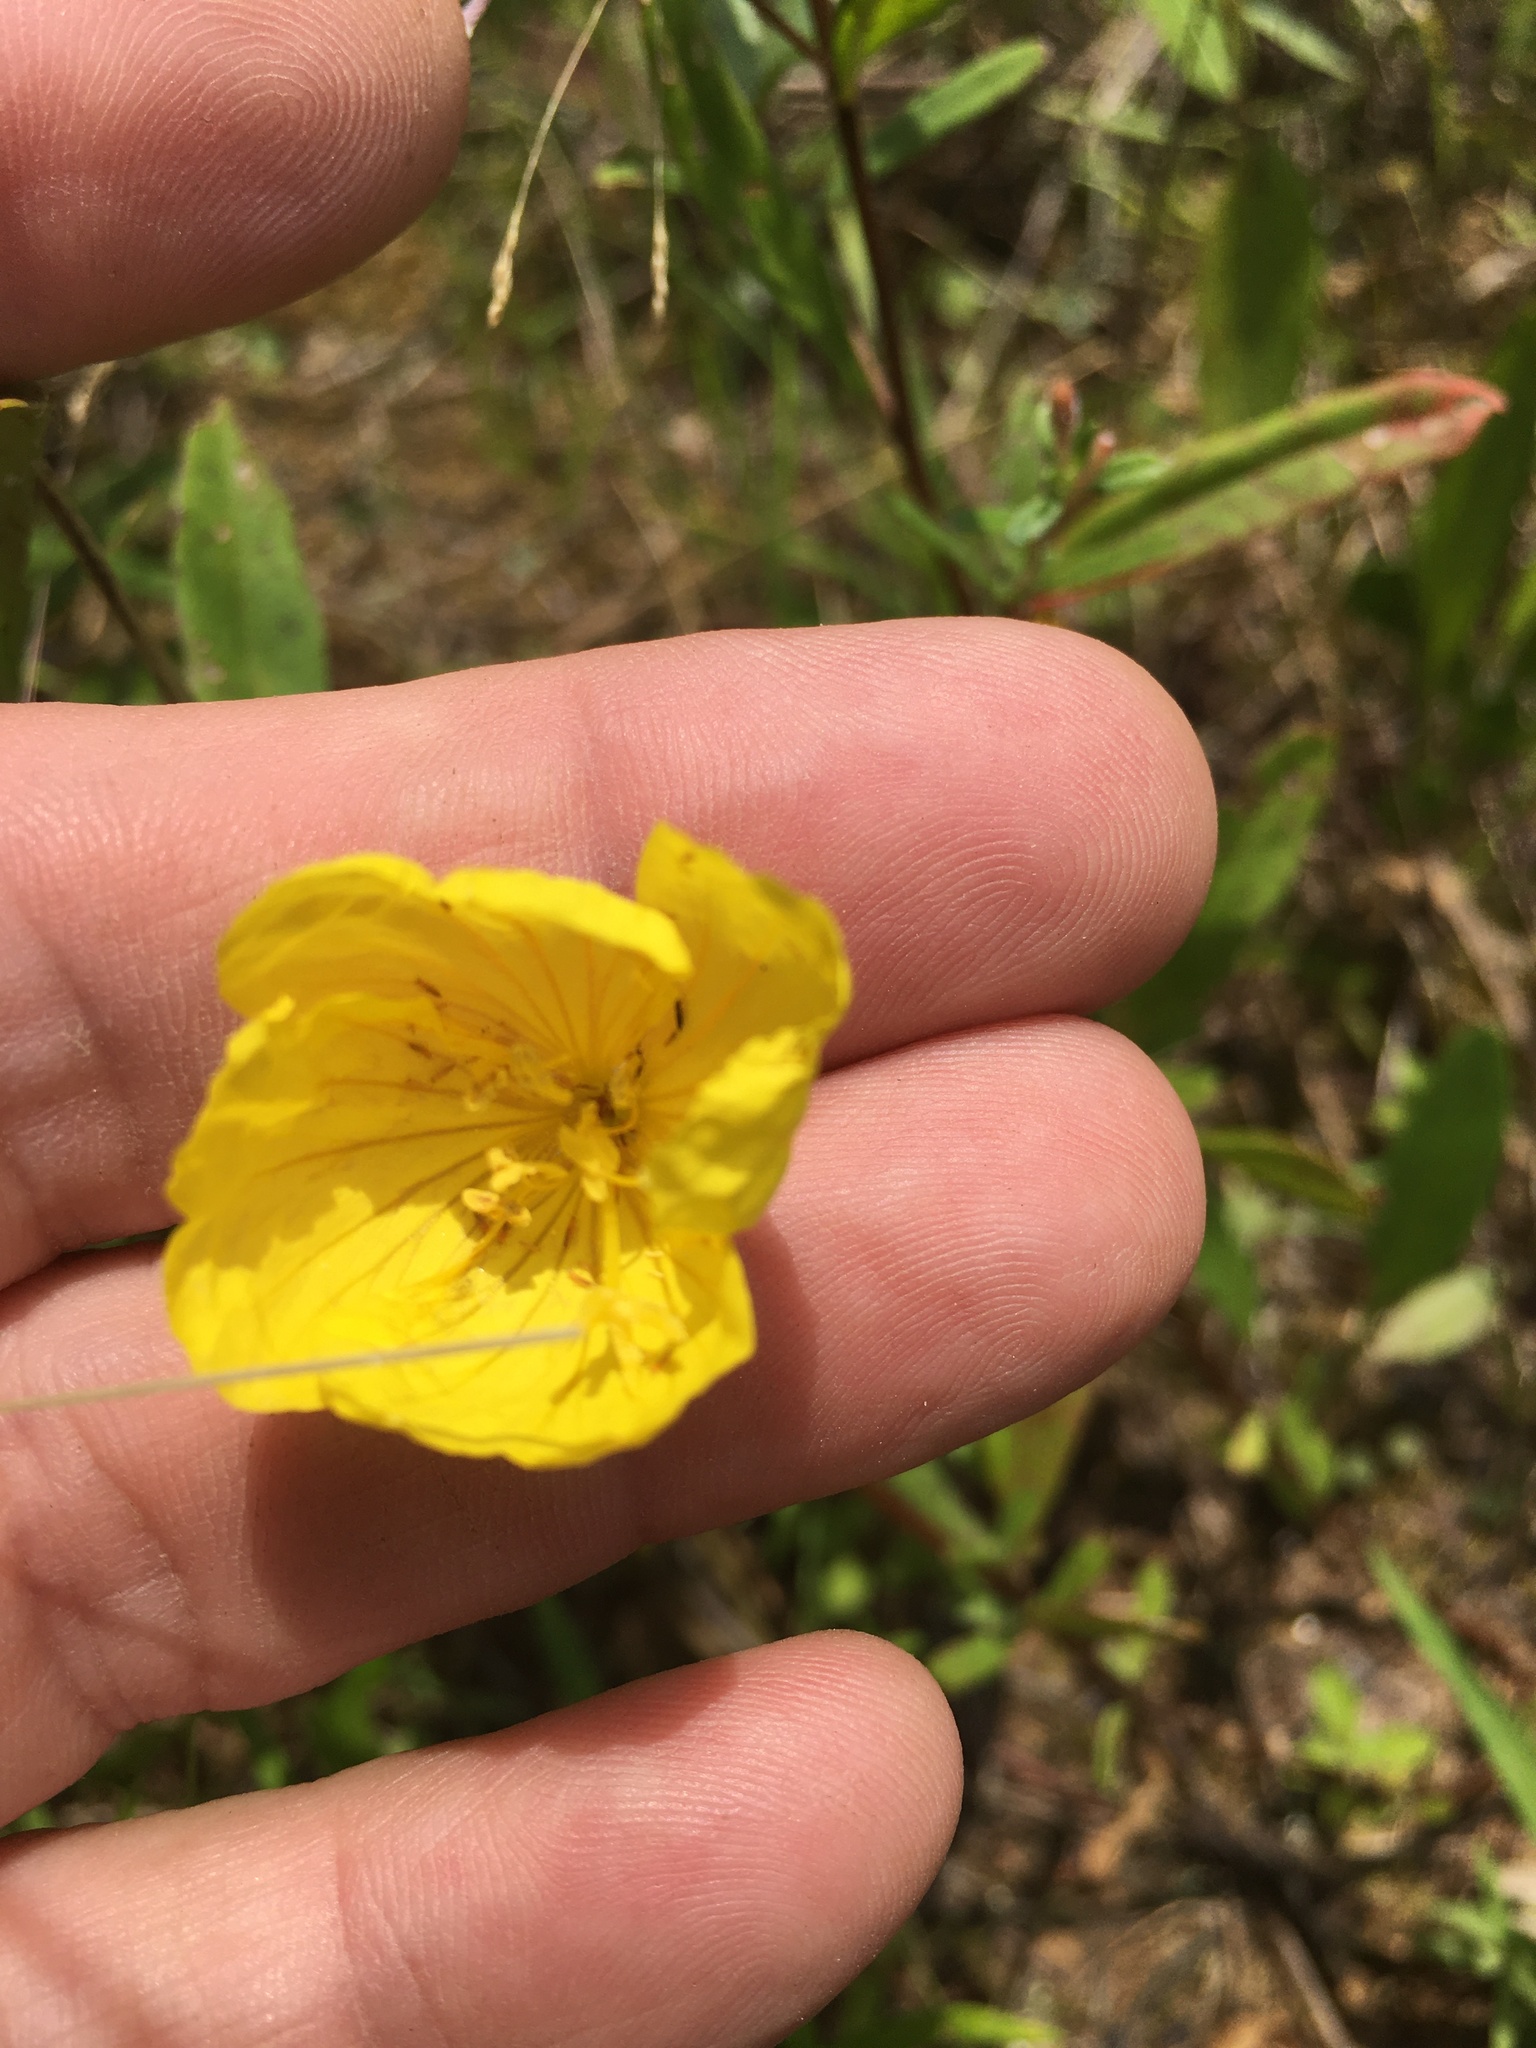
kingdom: Plantae
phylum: Tracheophyta
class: Magnoliopsida
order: Myrtales
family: Onagraceae
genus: Oenothera
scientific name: Oenothera fruticosa
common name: Southern sundrops
